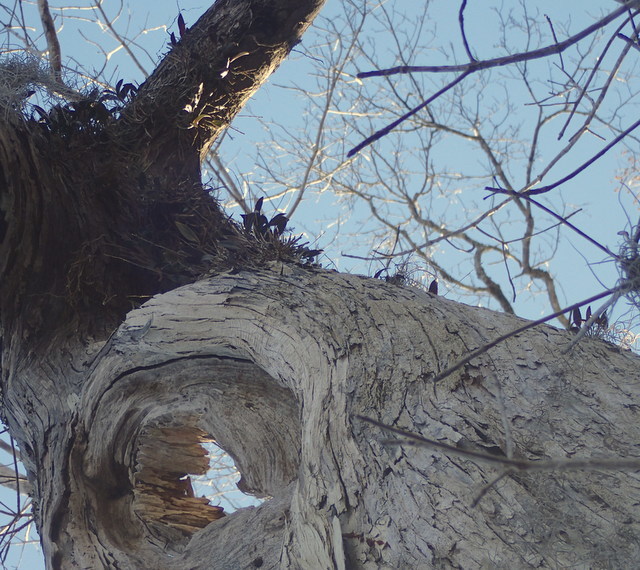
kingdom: Plantae
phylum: Tracheophyta
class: Liliopsida
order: Asparagales
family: Orchidaceae
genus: Epidendrum
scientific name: Epidendrum conopseum
